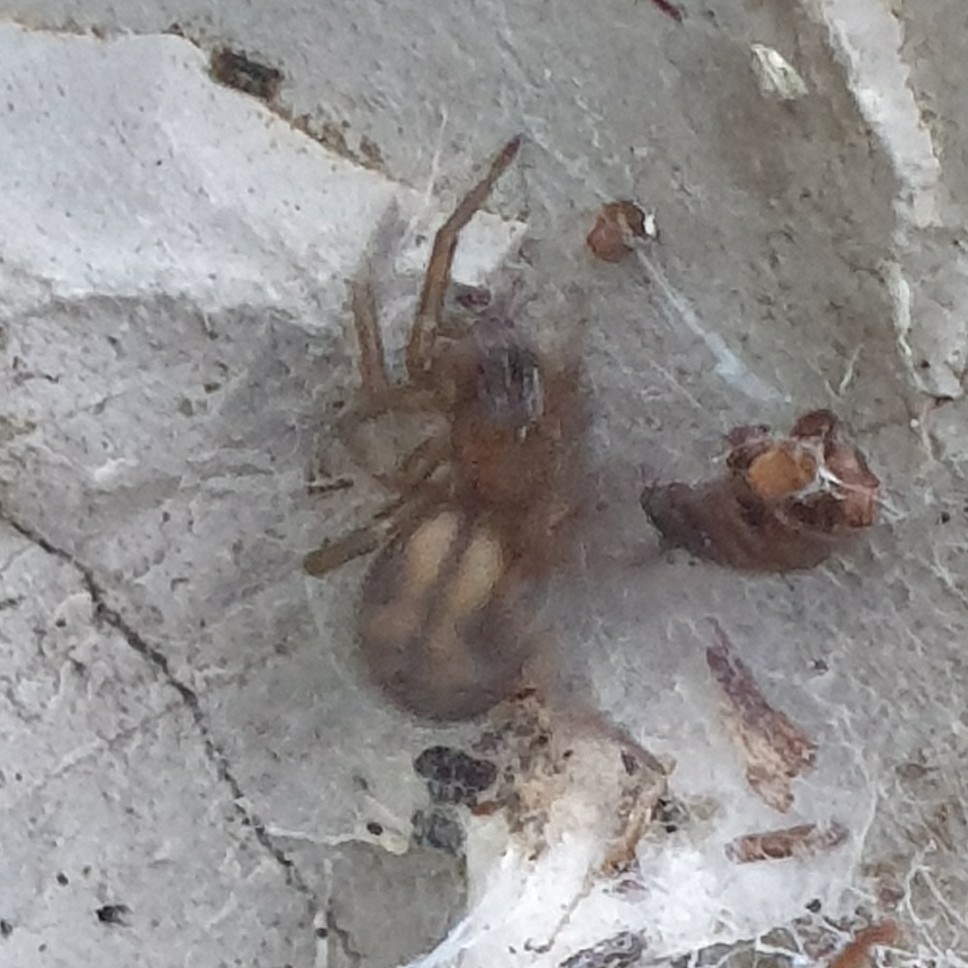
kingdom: Animalia
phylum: Arthropoda
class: Arachnida
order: Araneae
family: Amaurobiidae
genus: Callobius
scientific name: Callobius claustrarius
